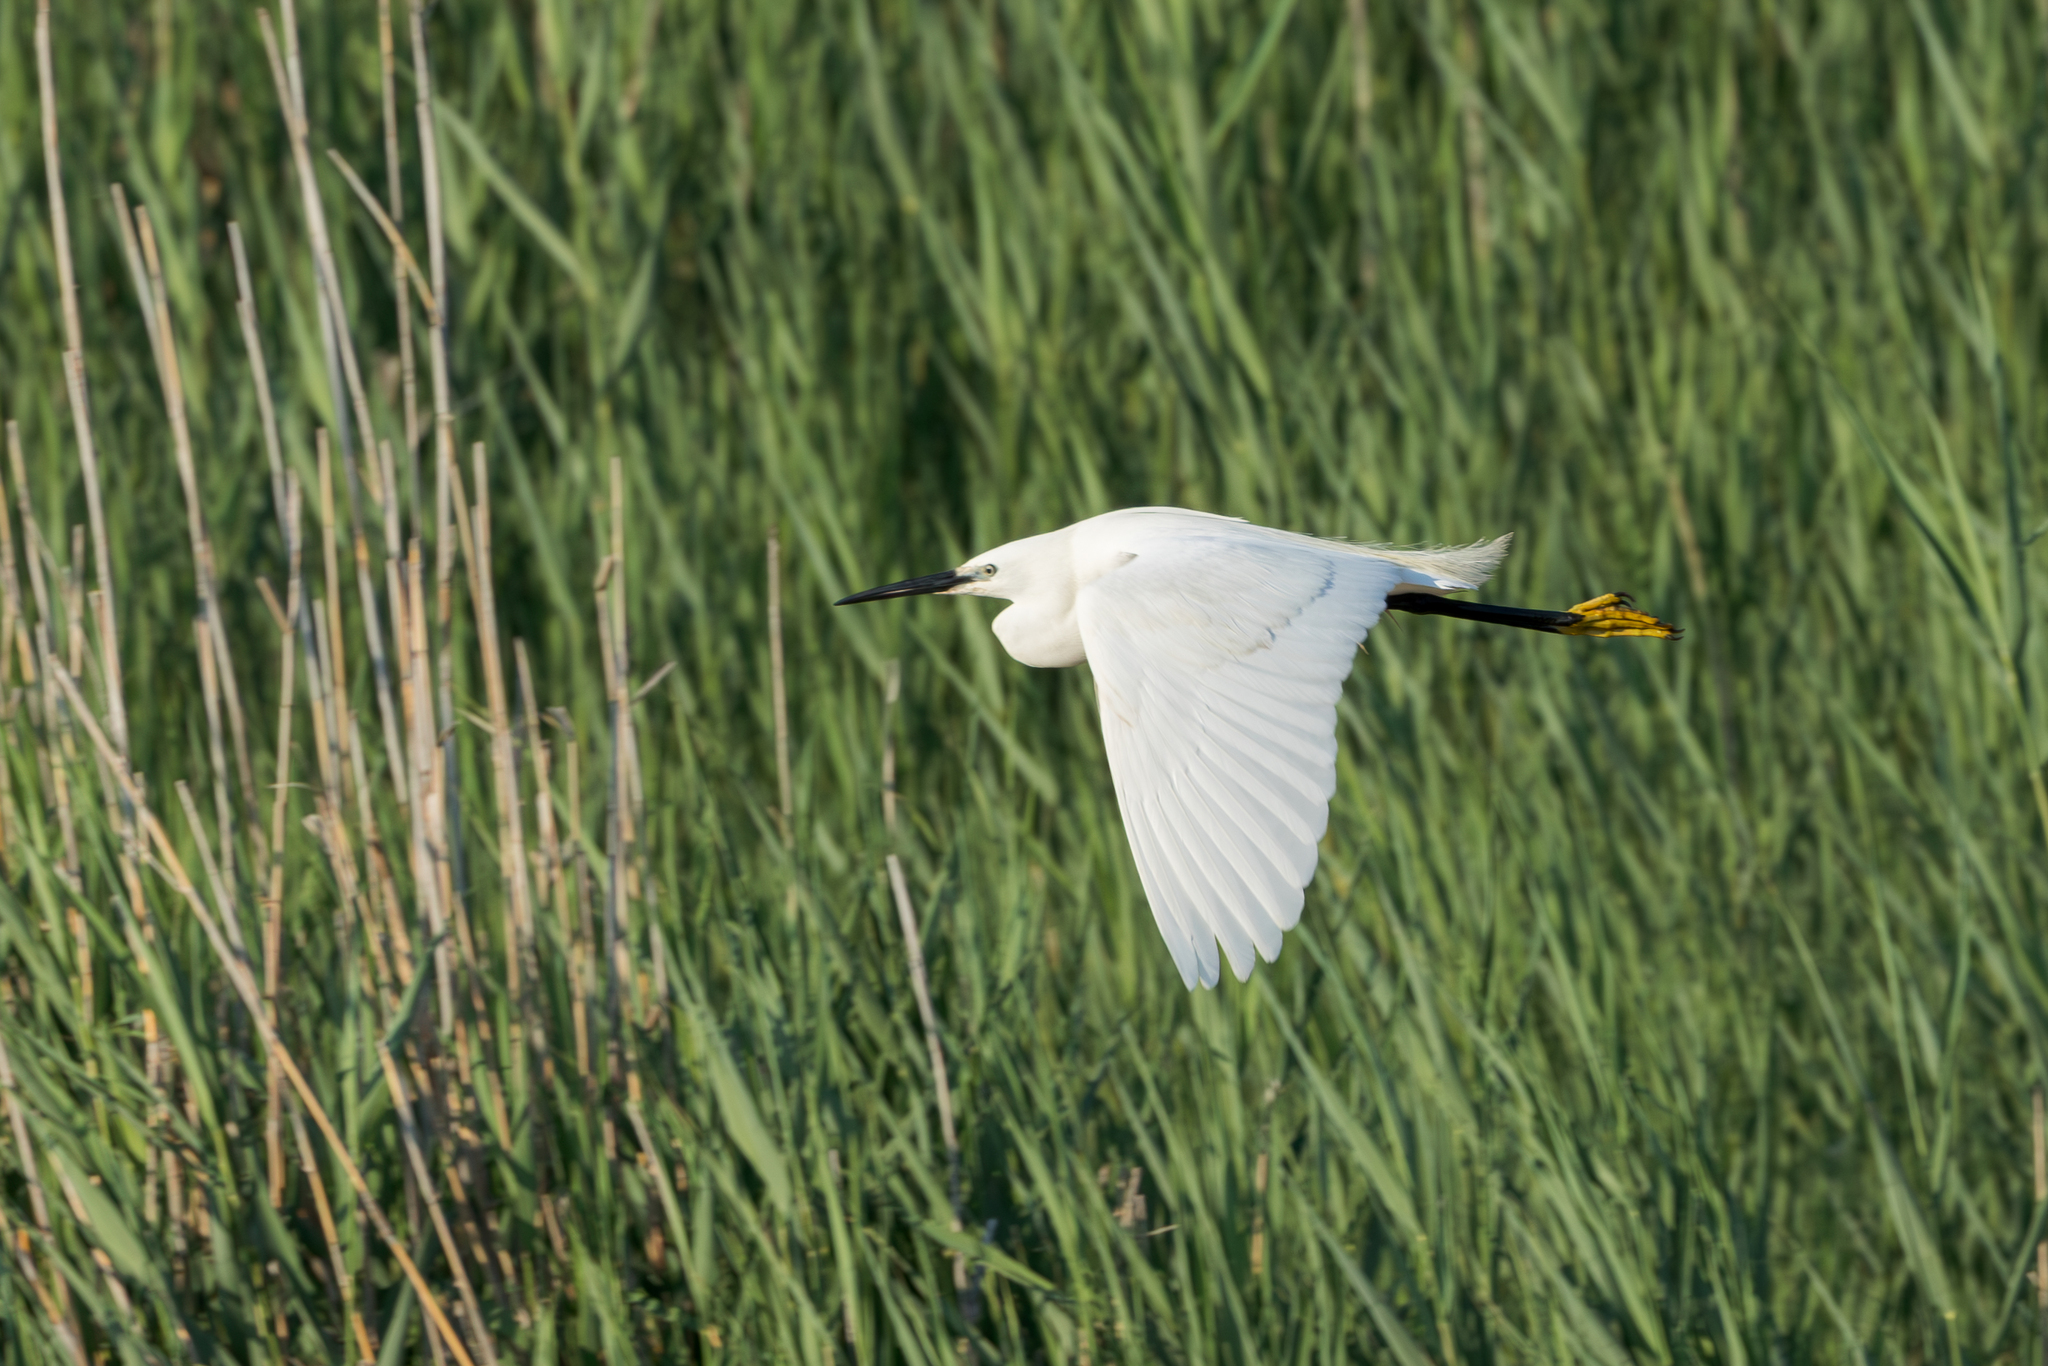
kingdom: Animalia
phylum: Chordata
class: Aves
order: Pelecaniformes
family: Ardeidae
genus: Egretta
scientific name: Egretta garzetta
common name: Little egret
